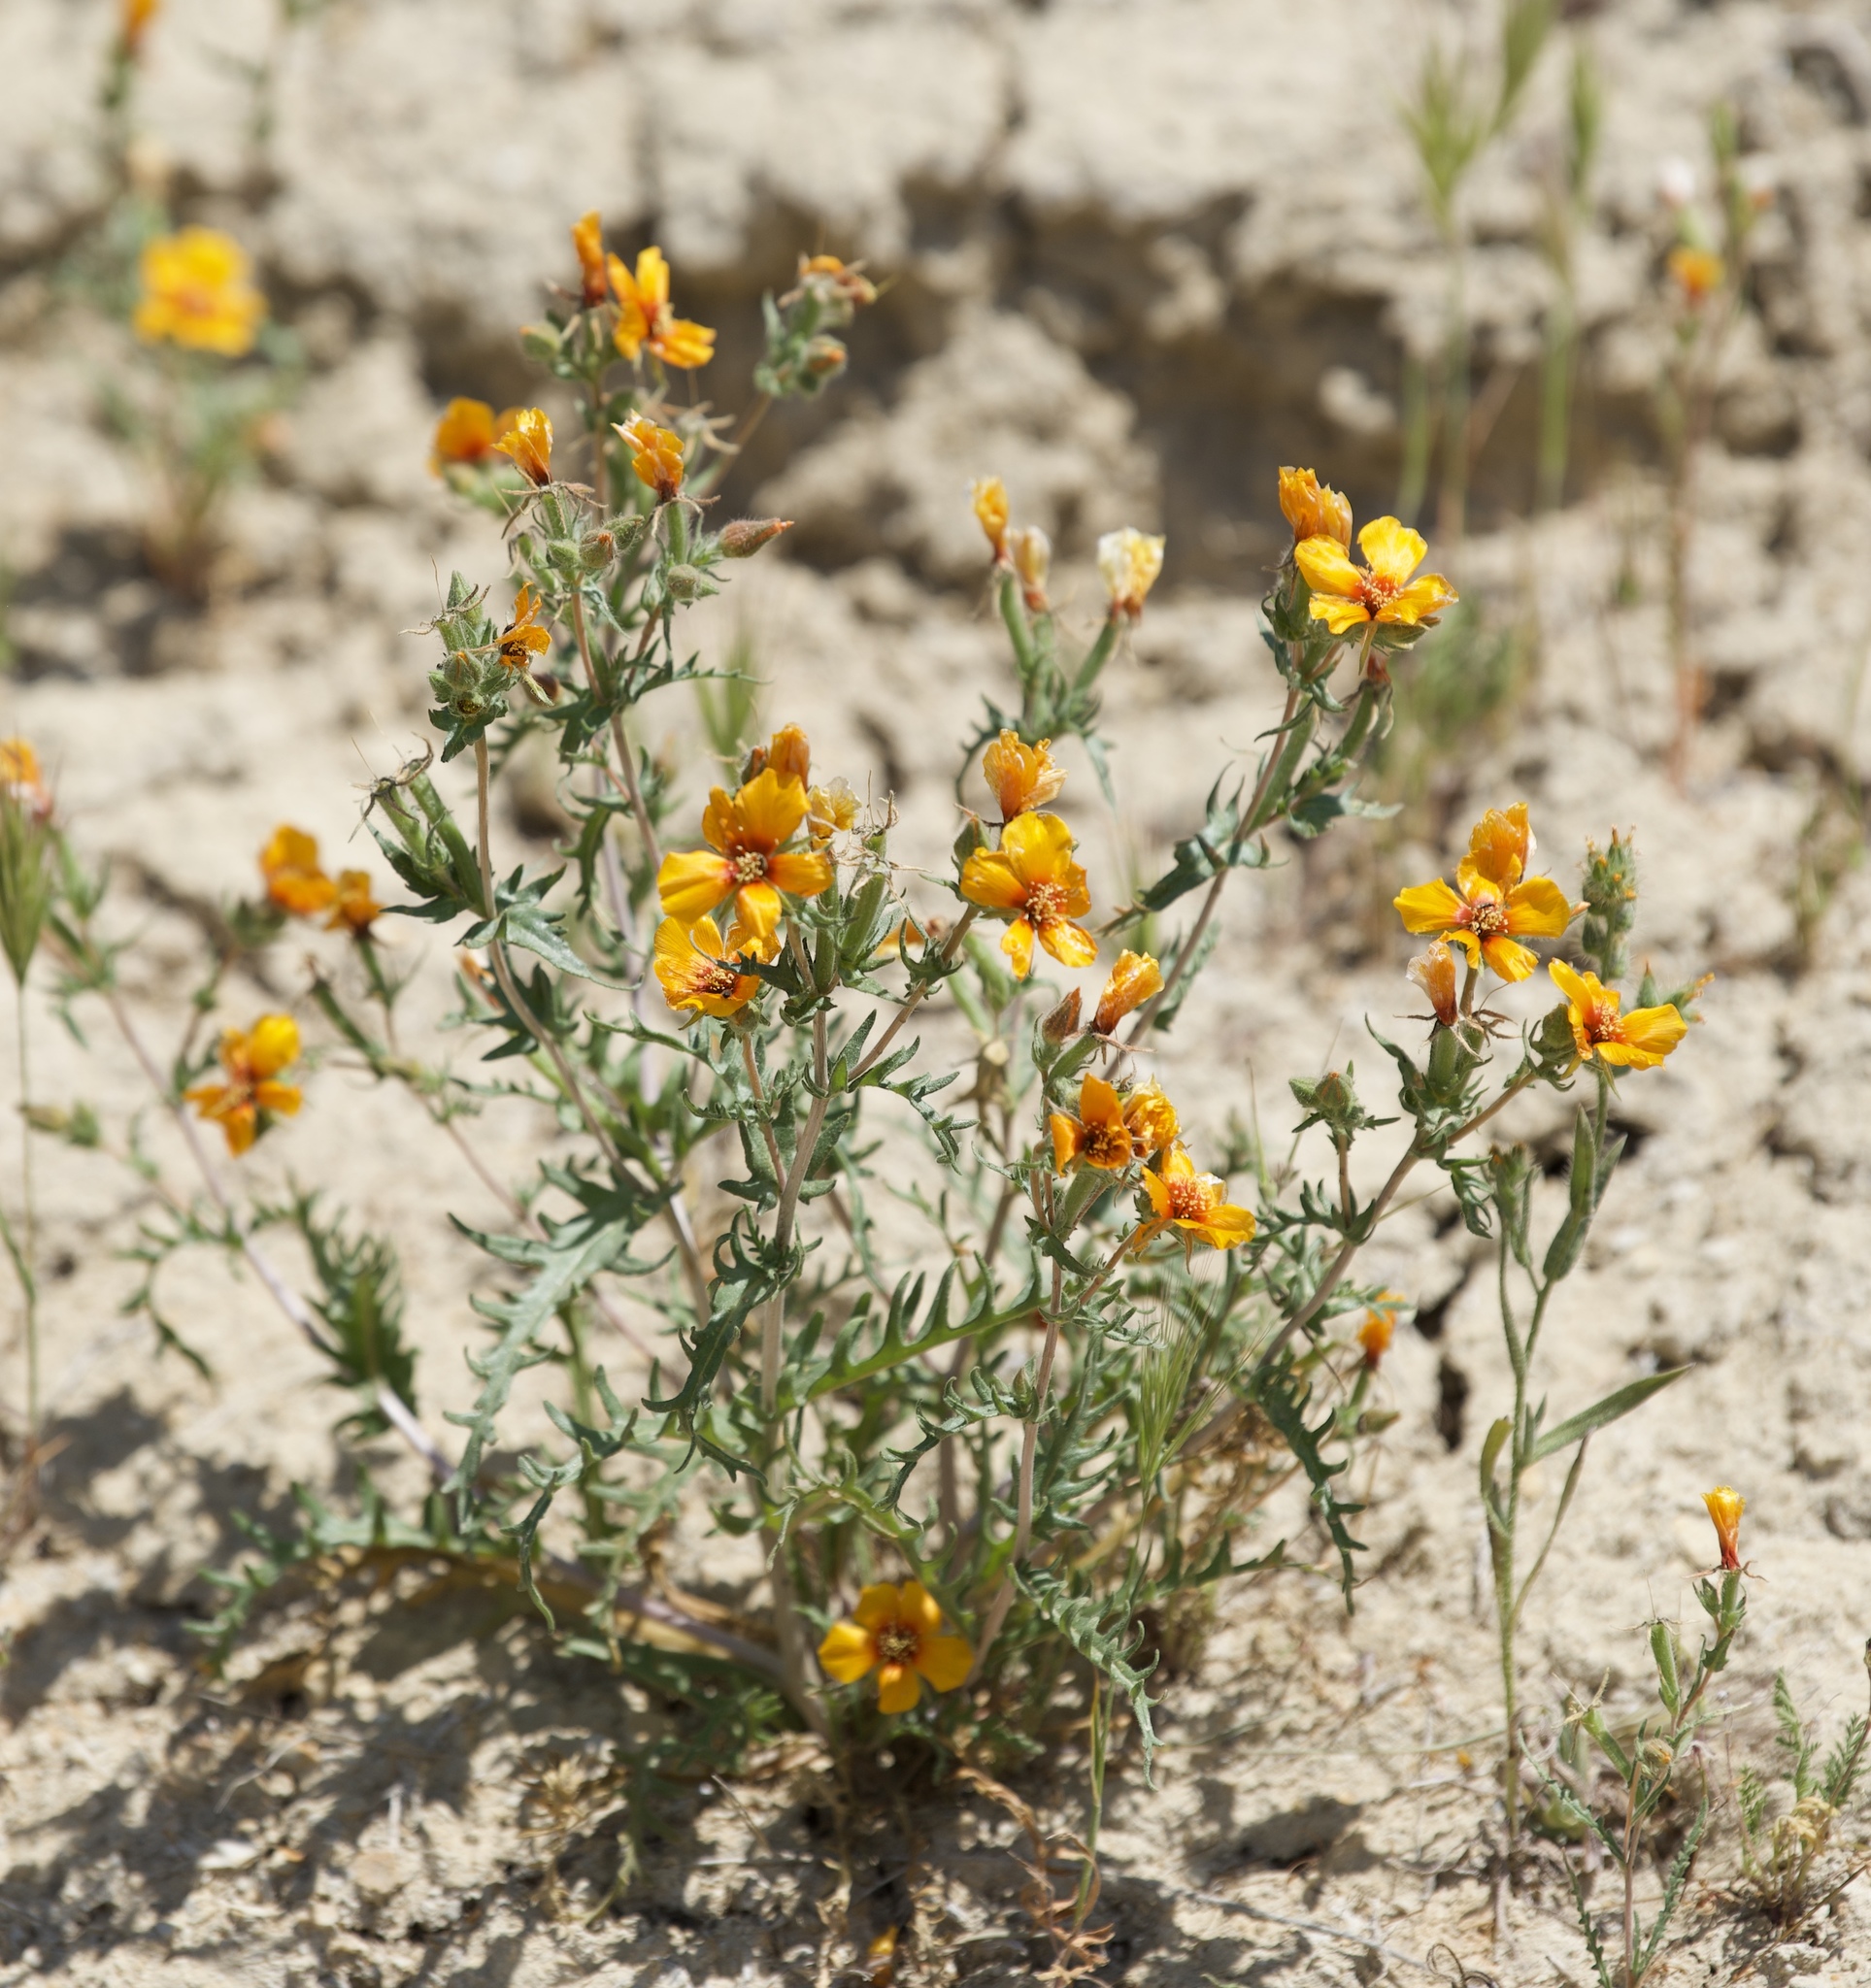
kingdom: Plantae
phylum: Tracheophyta
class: Magnoliopsida
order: Cornales
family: Loasaceae
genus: Mentzelia
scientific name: Mentzelia pectinata
